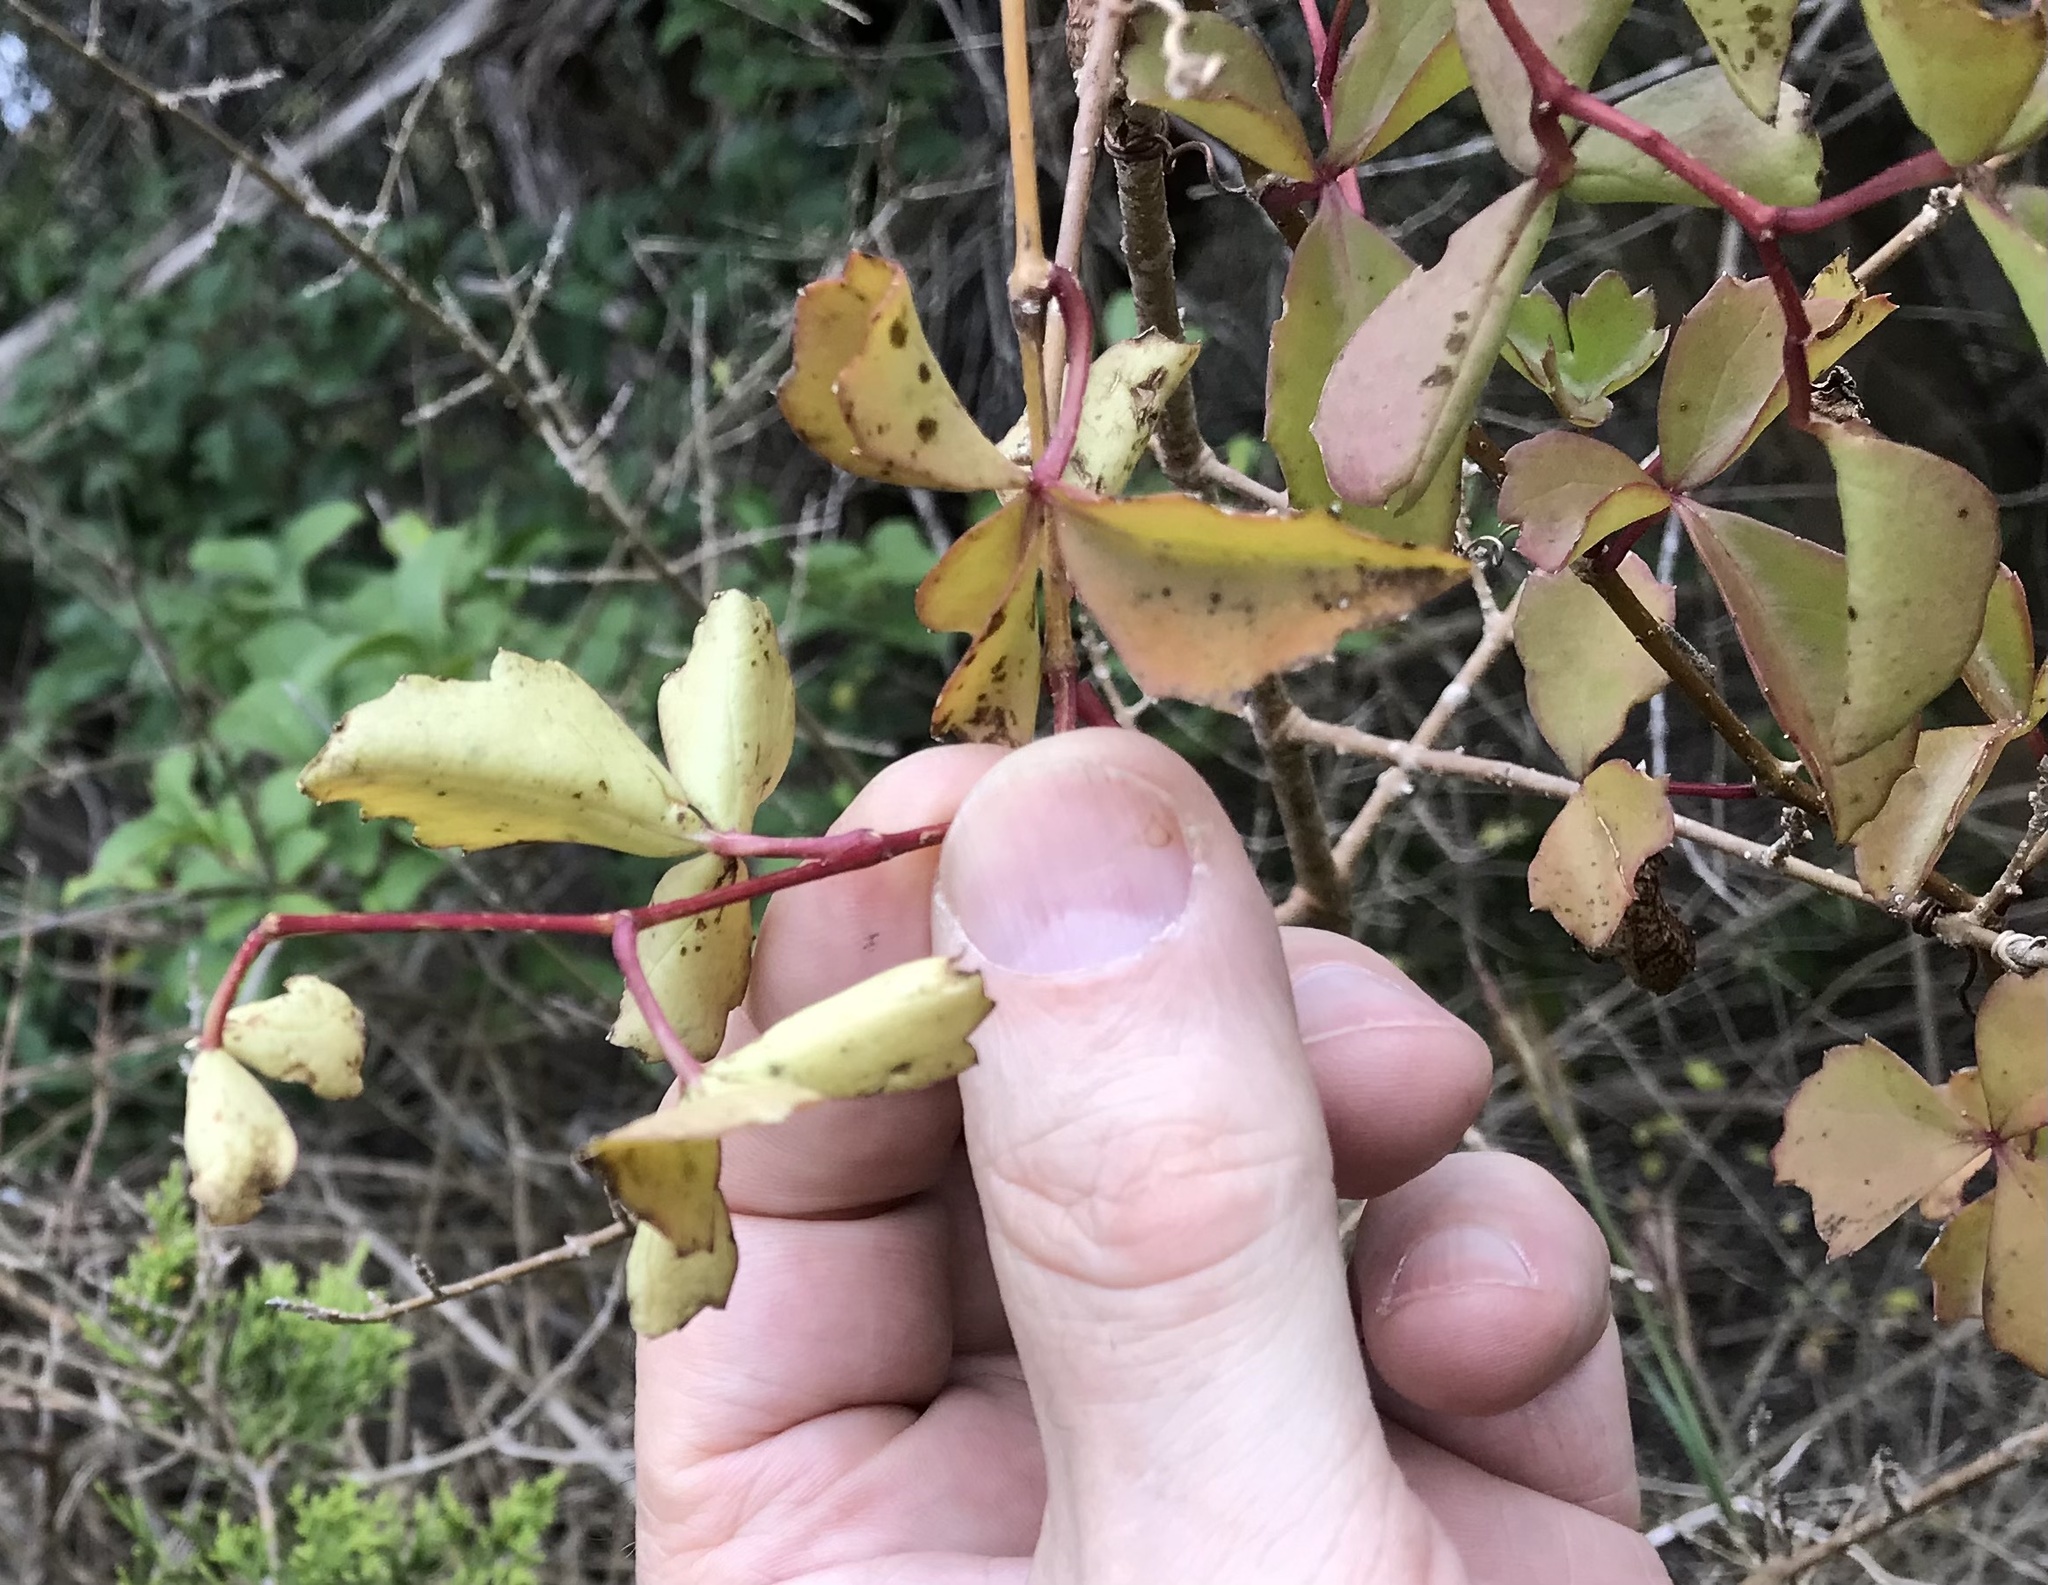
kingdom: Plantae
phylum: Tracheophyta
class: Magnoliopsida
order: Vitales
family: Vitaceae
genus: Cissus
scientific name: Cissus trifoliata
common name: Vine-sorrel
